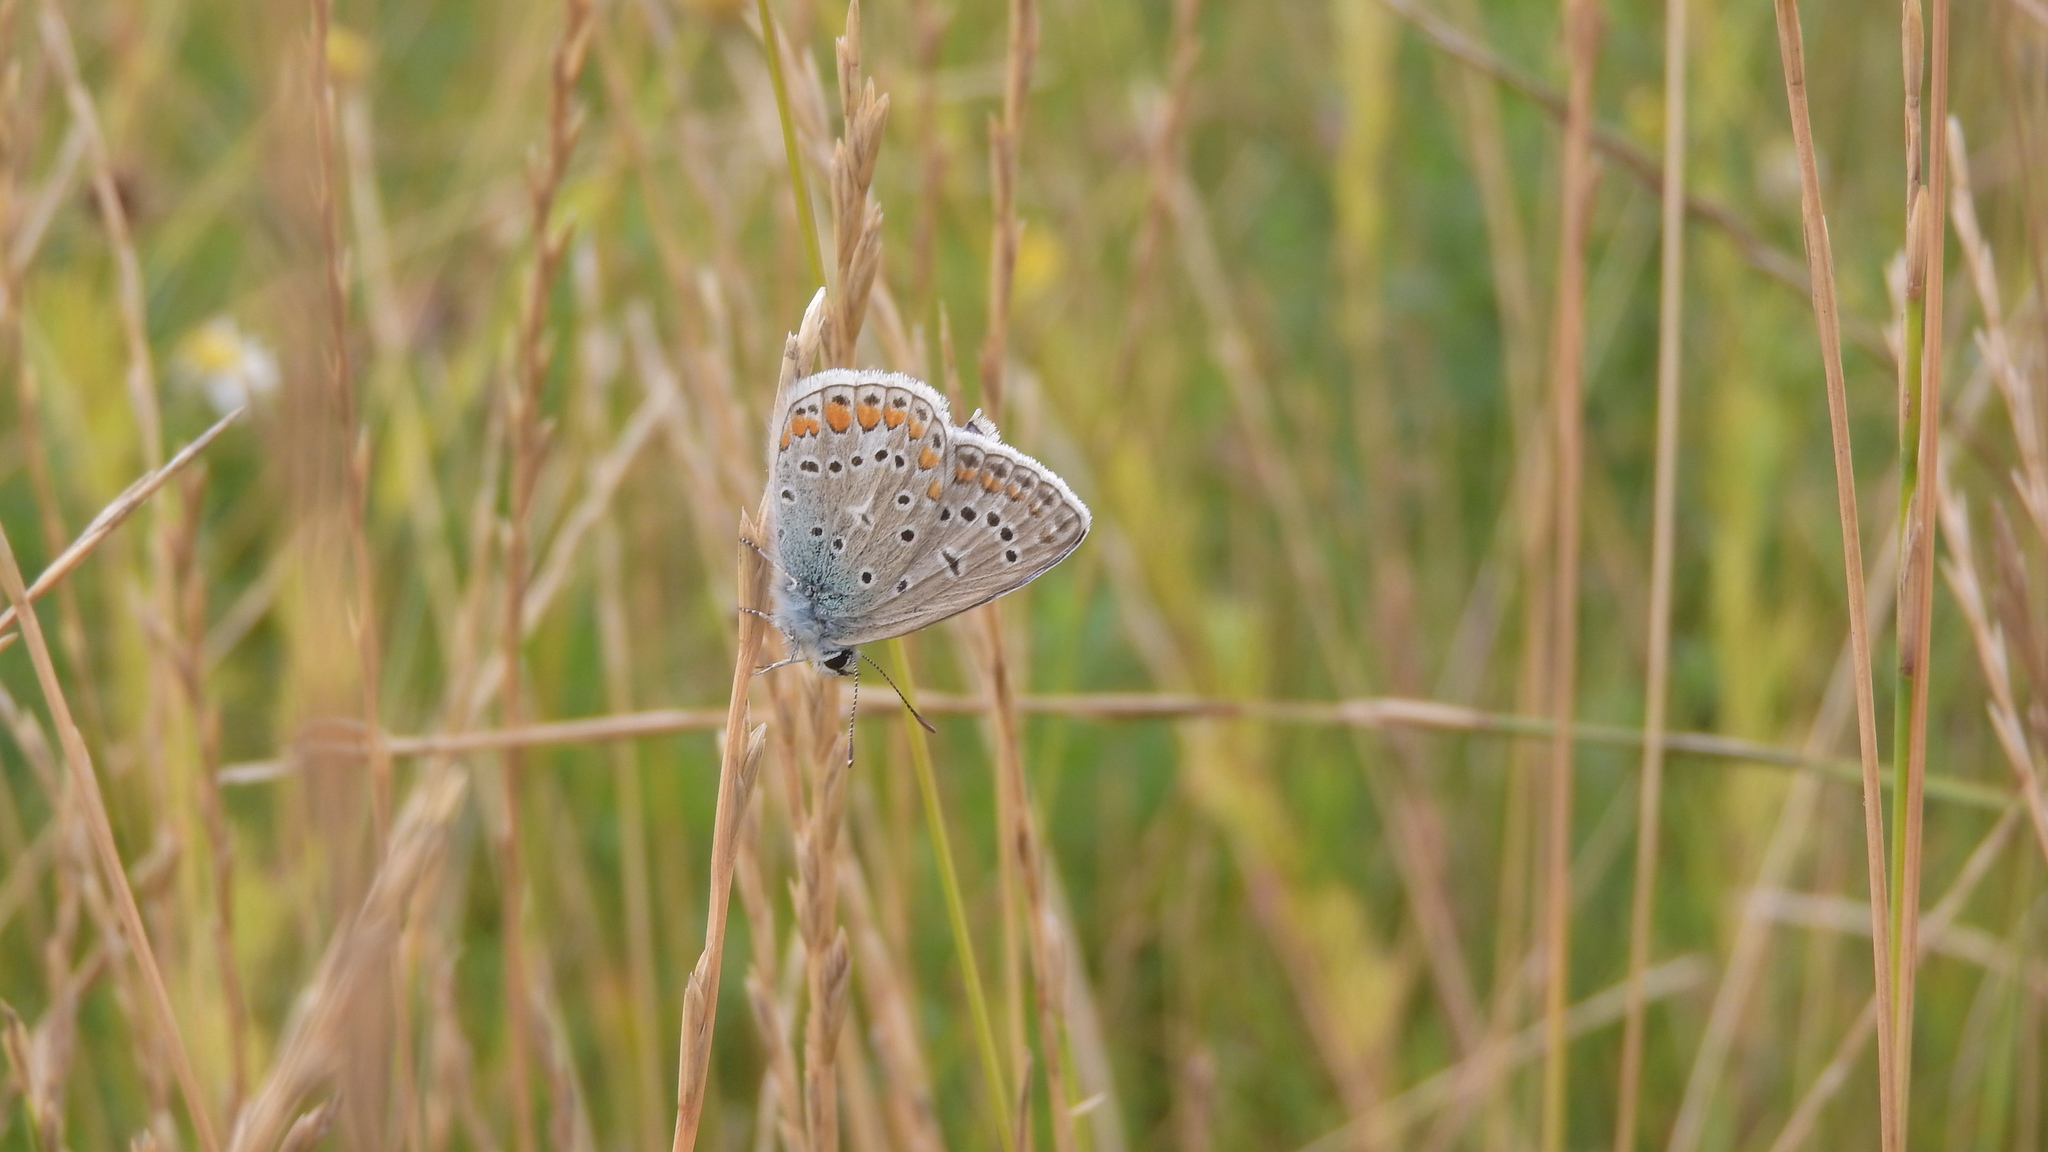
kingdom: Animalia
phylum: Arthropoda
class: Insecta
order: Lepidoptera
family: Lycaenidae
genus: Polyommatus
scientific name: Polyommatus icarus
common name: Common blue
